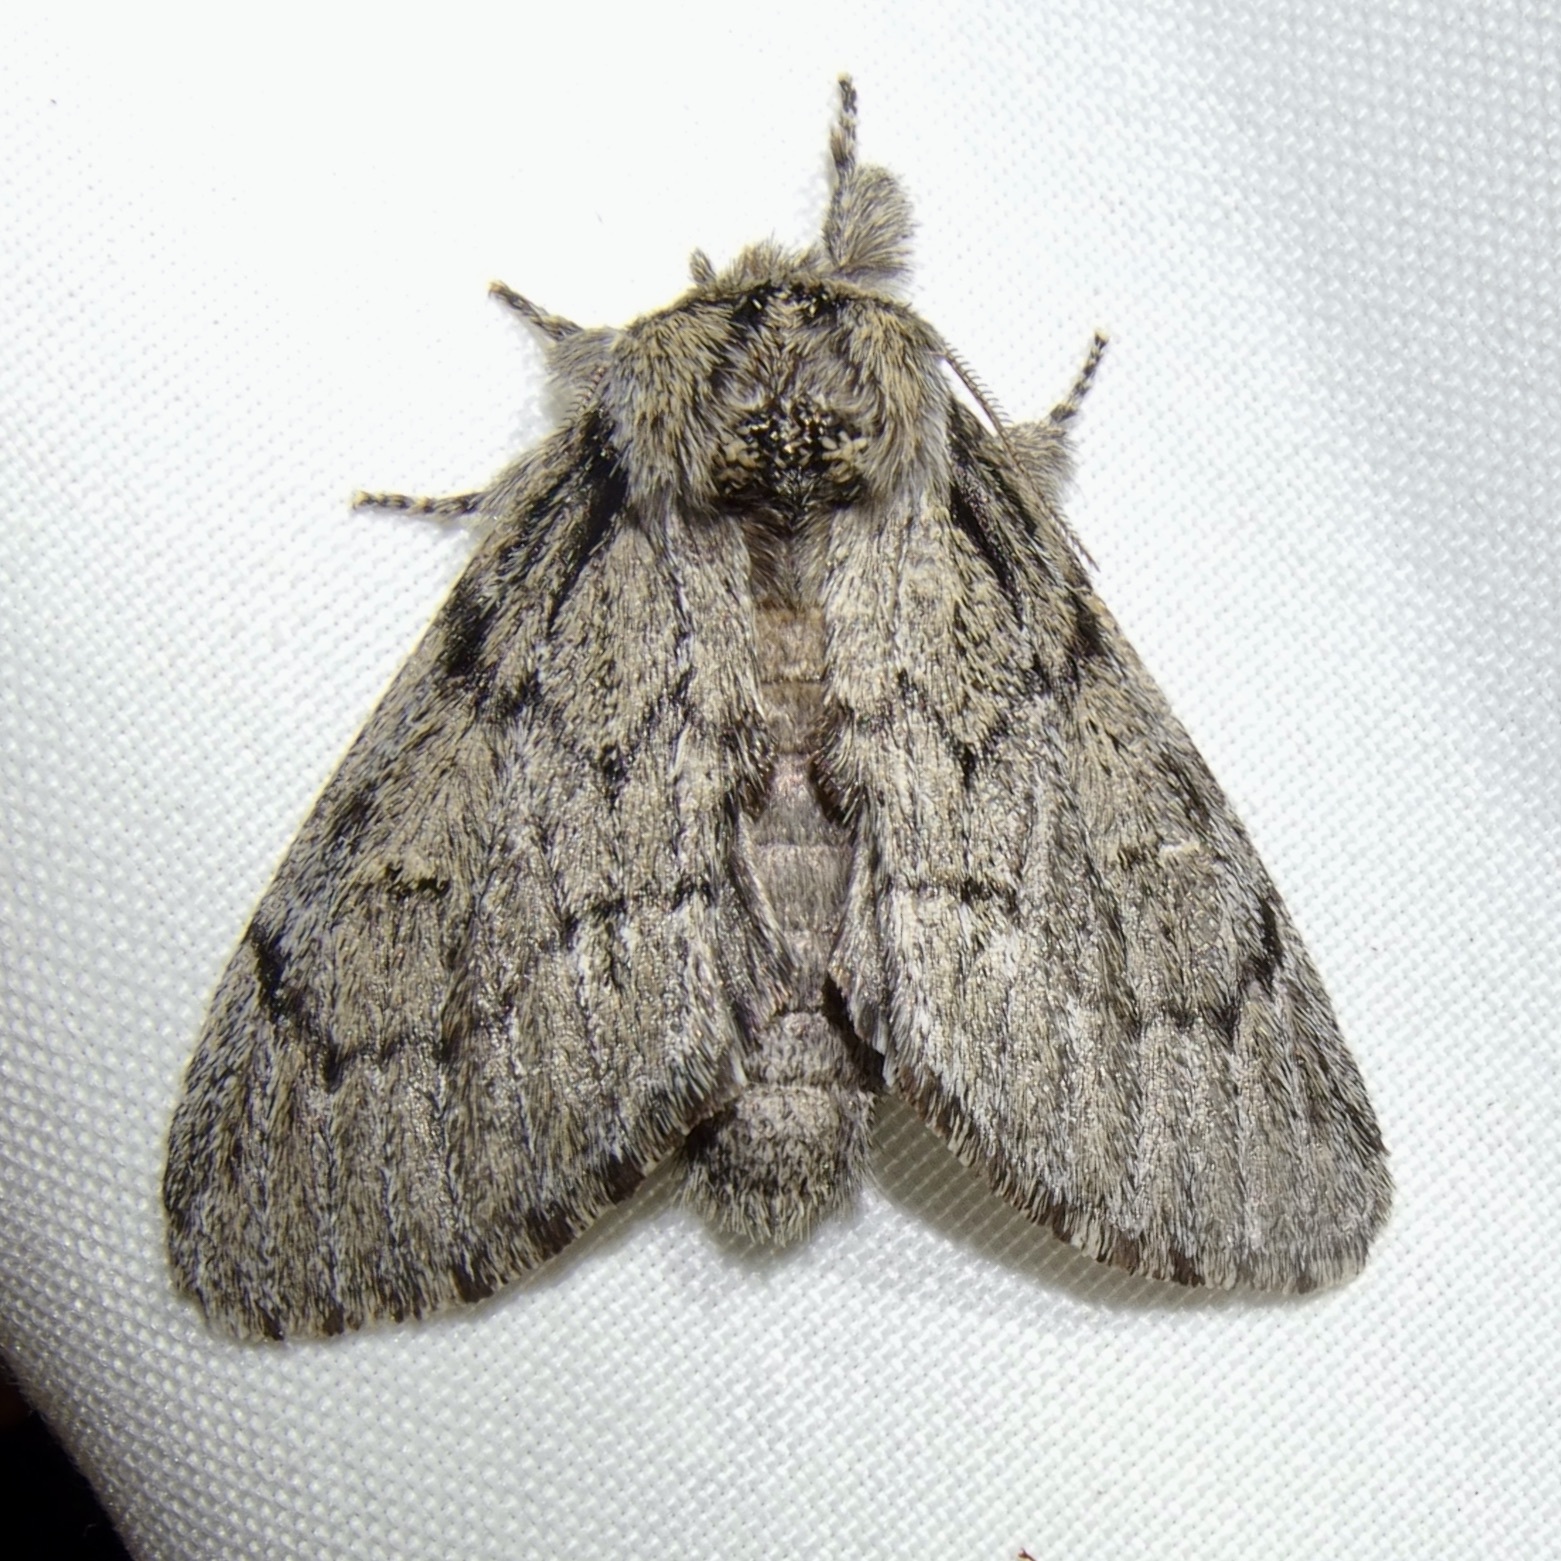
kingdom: Animalia
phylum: Arthropoda
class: Insecta
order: Lepidoptera
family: Notodontidae
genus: Paraeschra
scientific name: Paraeschra tortuosa
